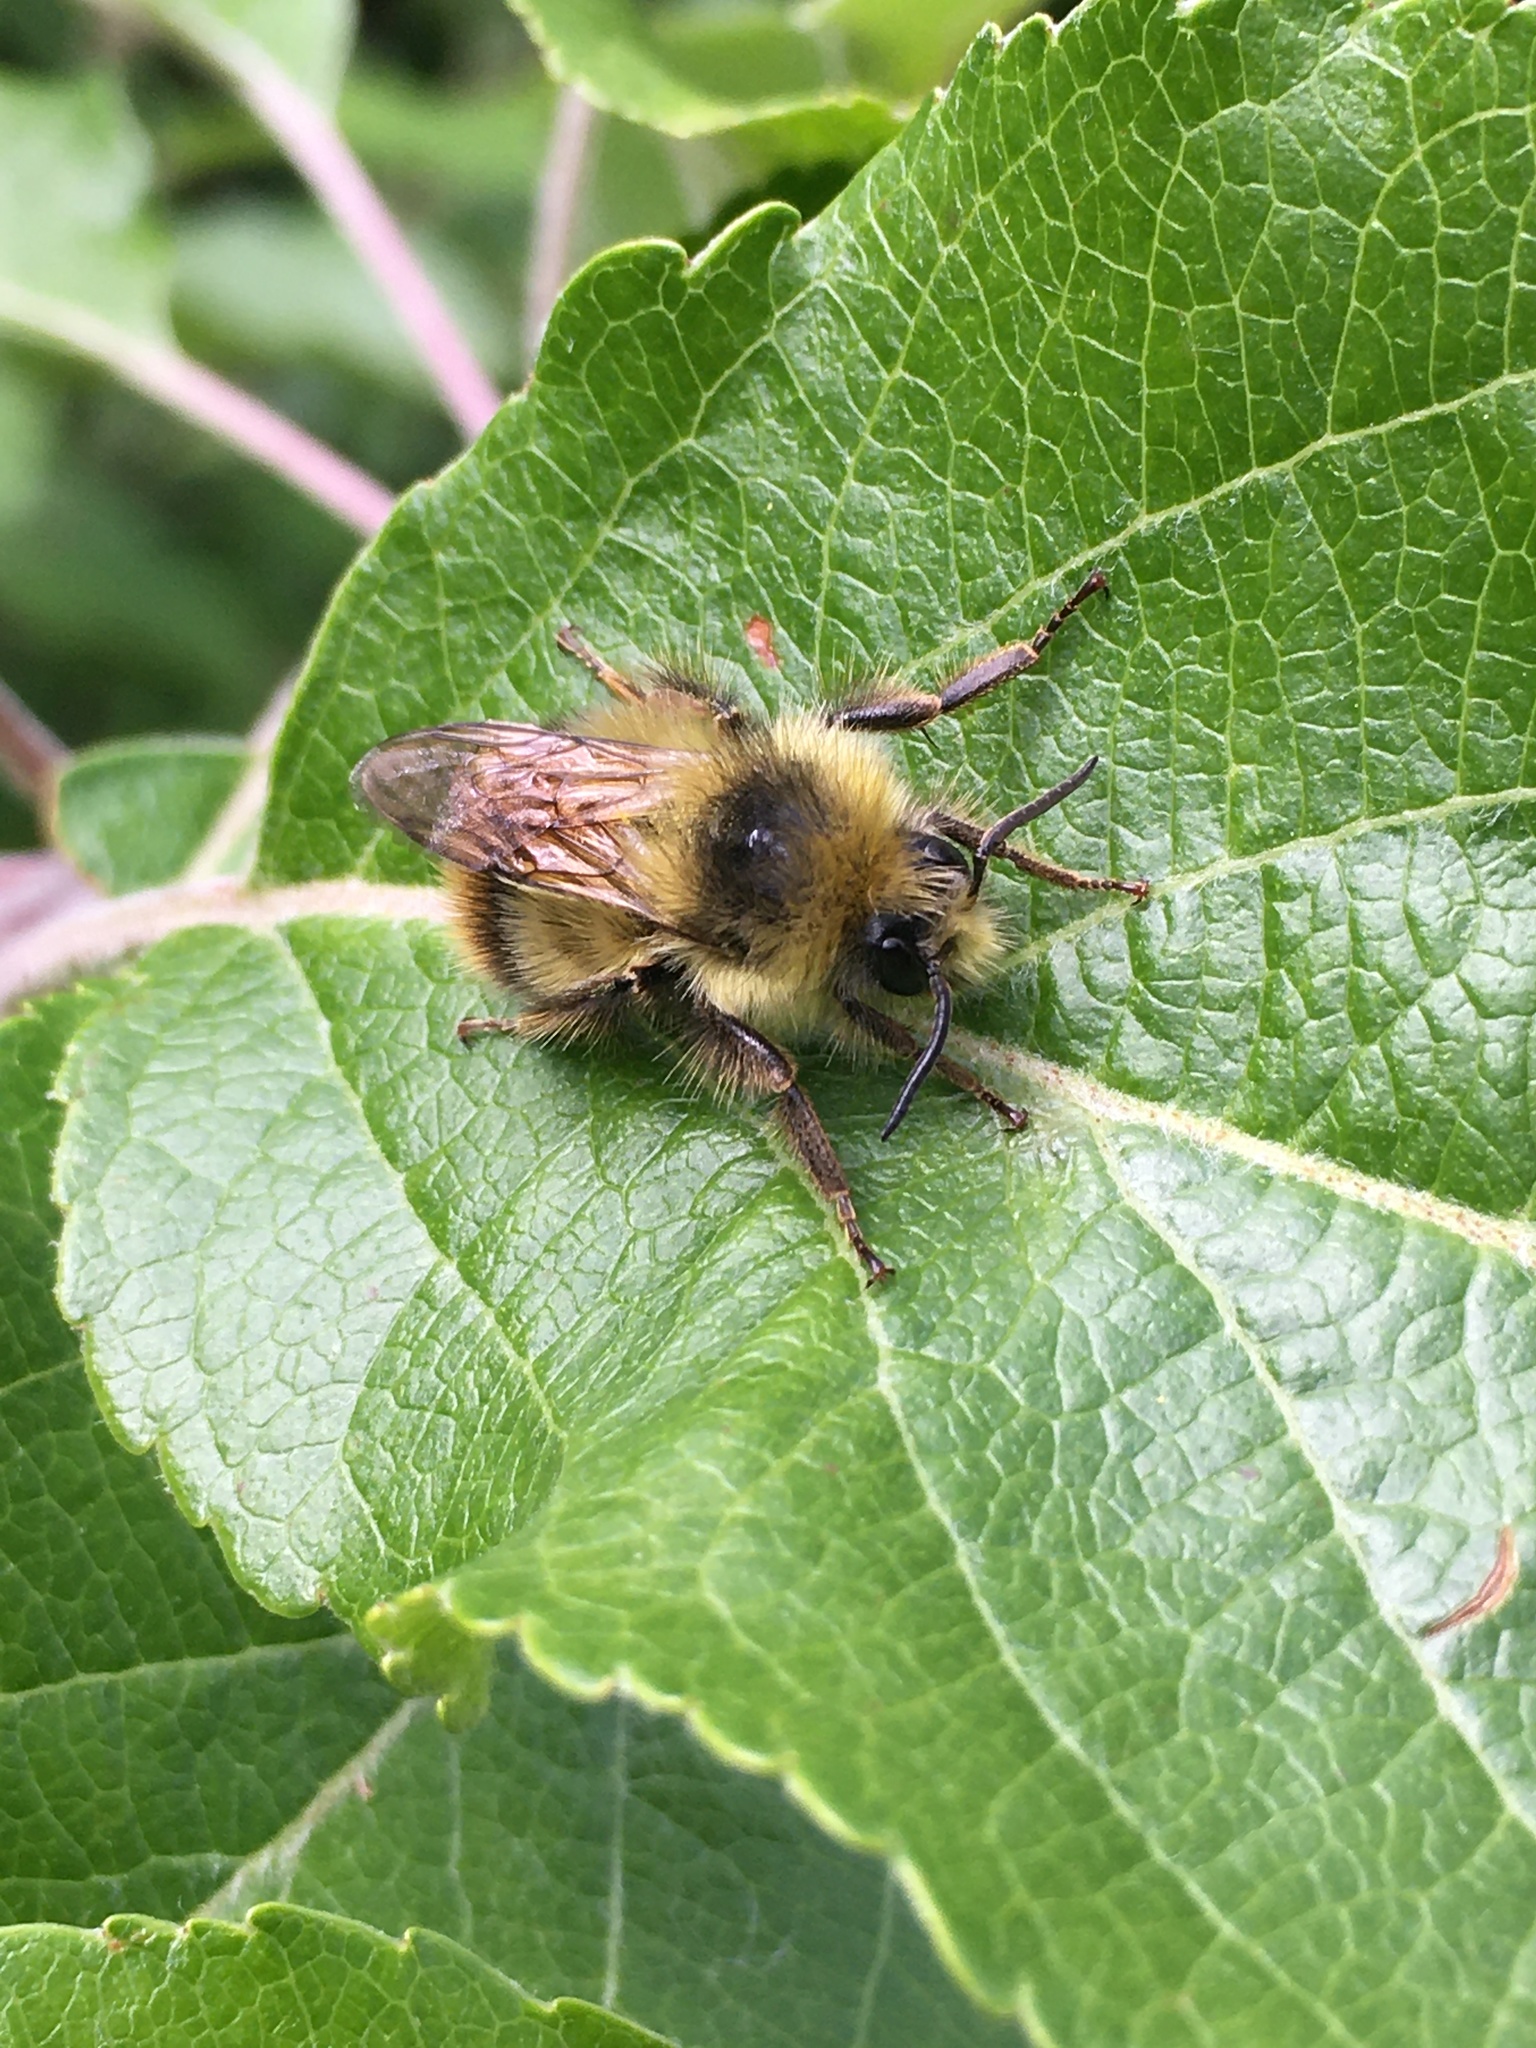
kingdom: Animalia
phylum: Arthropoda
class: Insecta
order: Hymenoptera
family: Apidae
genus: Bombus
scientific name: Bombus mixtus
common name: Fuzzy-horned bumble bee
